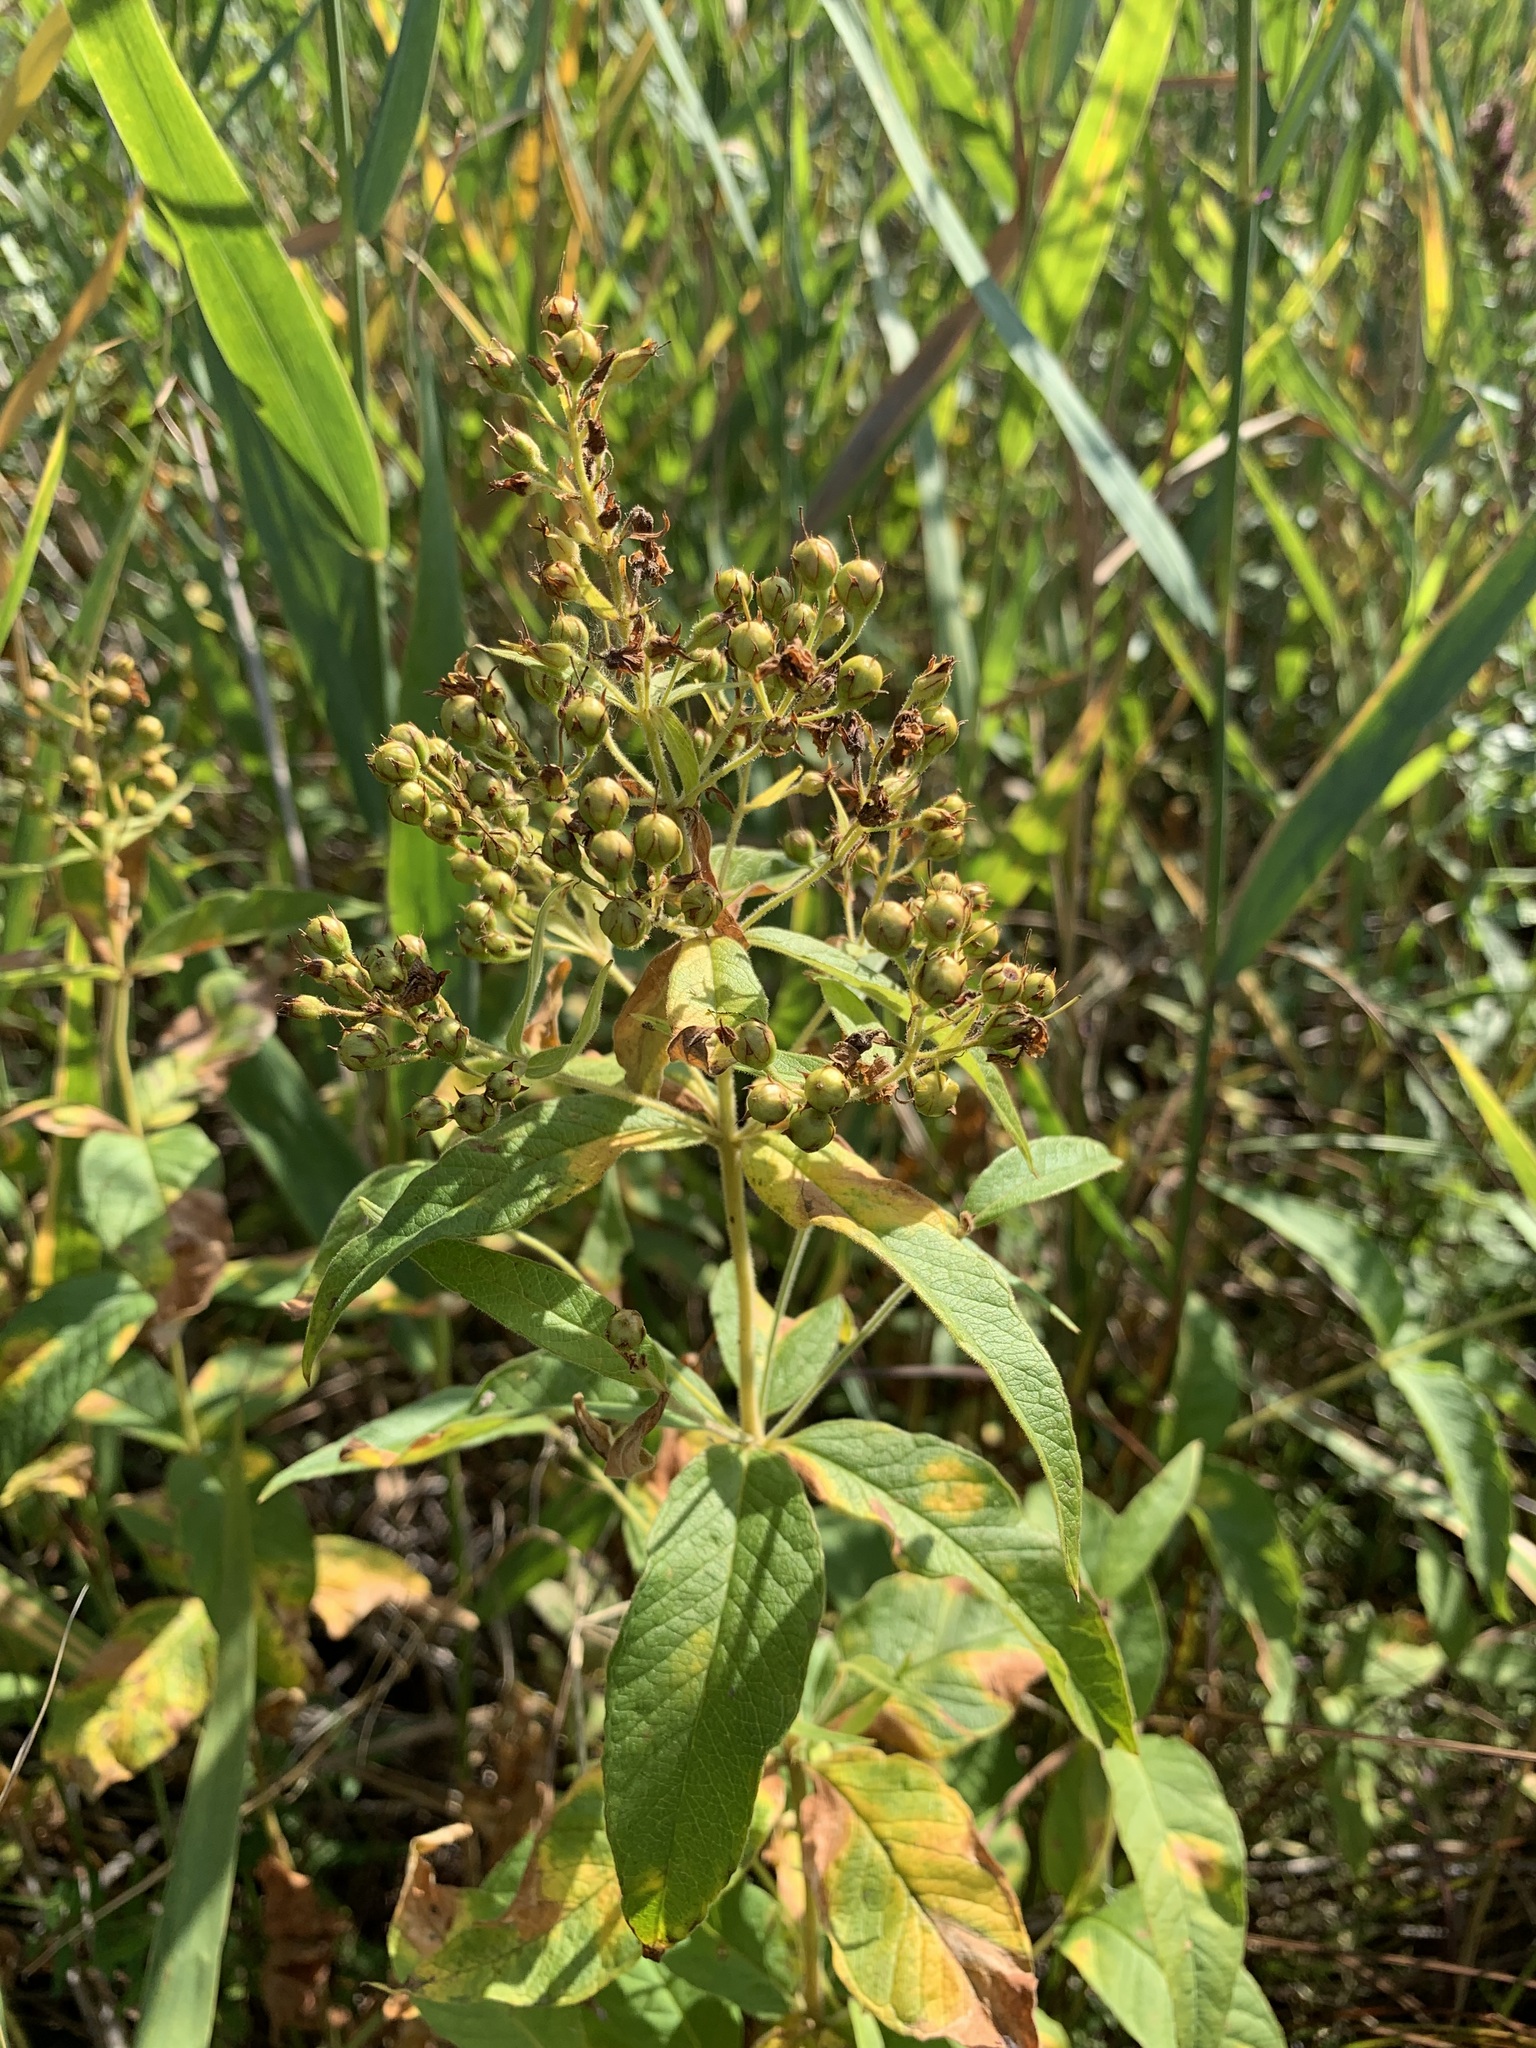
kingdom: Plantae
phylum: Tracheophyta
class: Magnoliopsida
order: Ericales
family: Primulaceae
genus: Lysimachia
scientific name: Lysimachia vulgaris
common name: Yellow loosestrife
